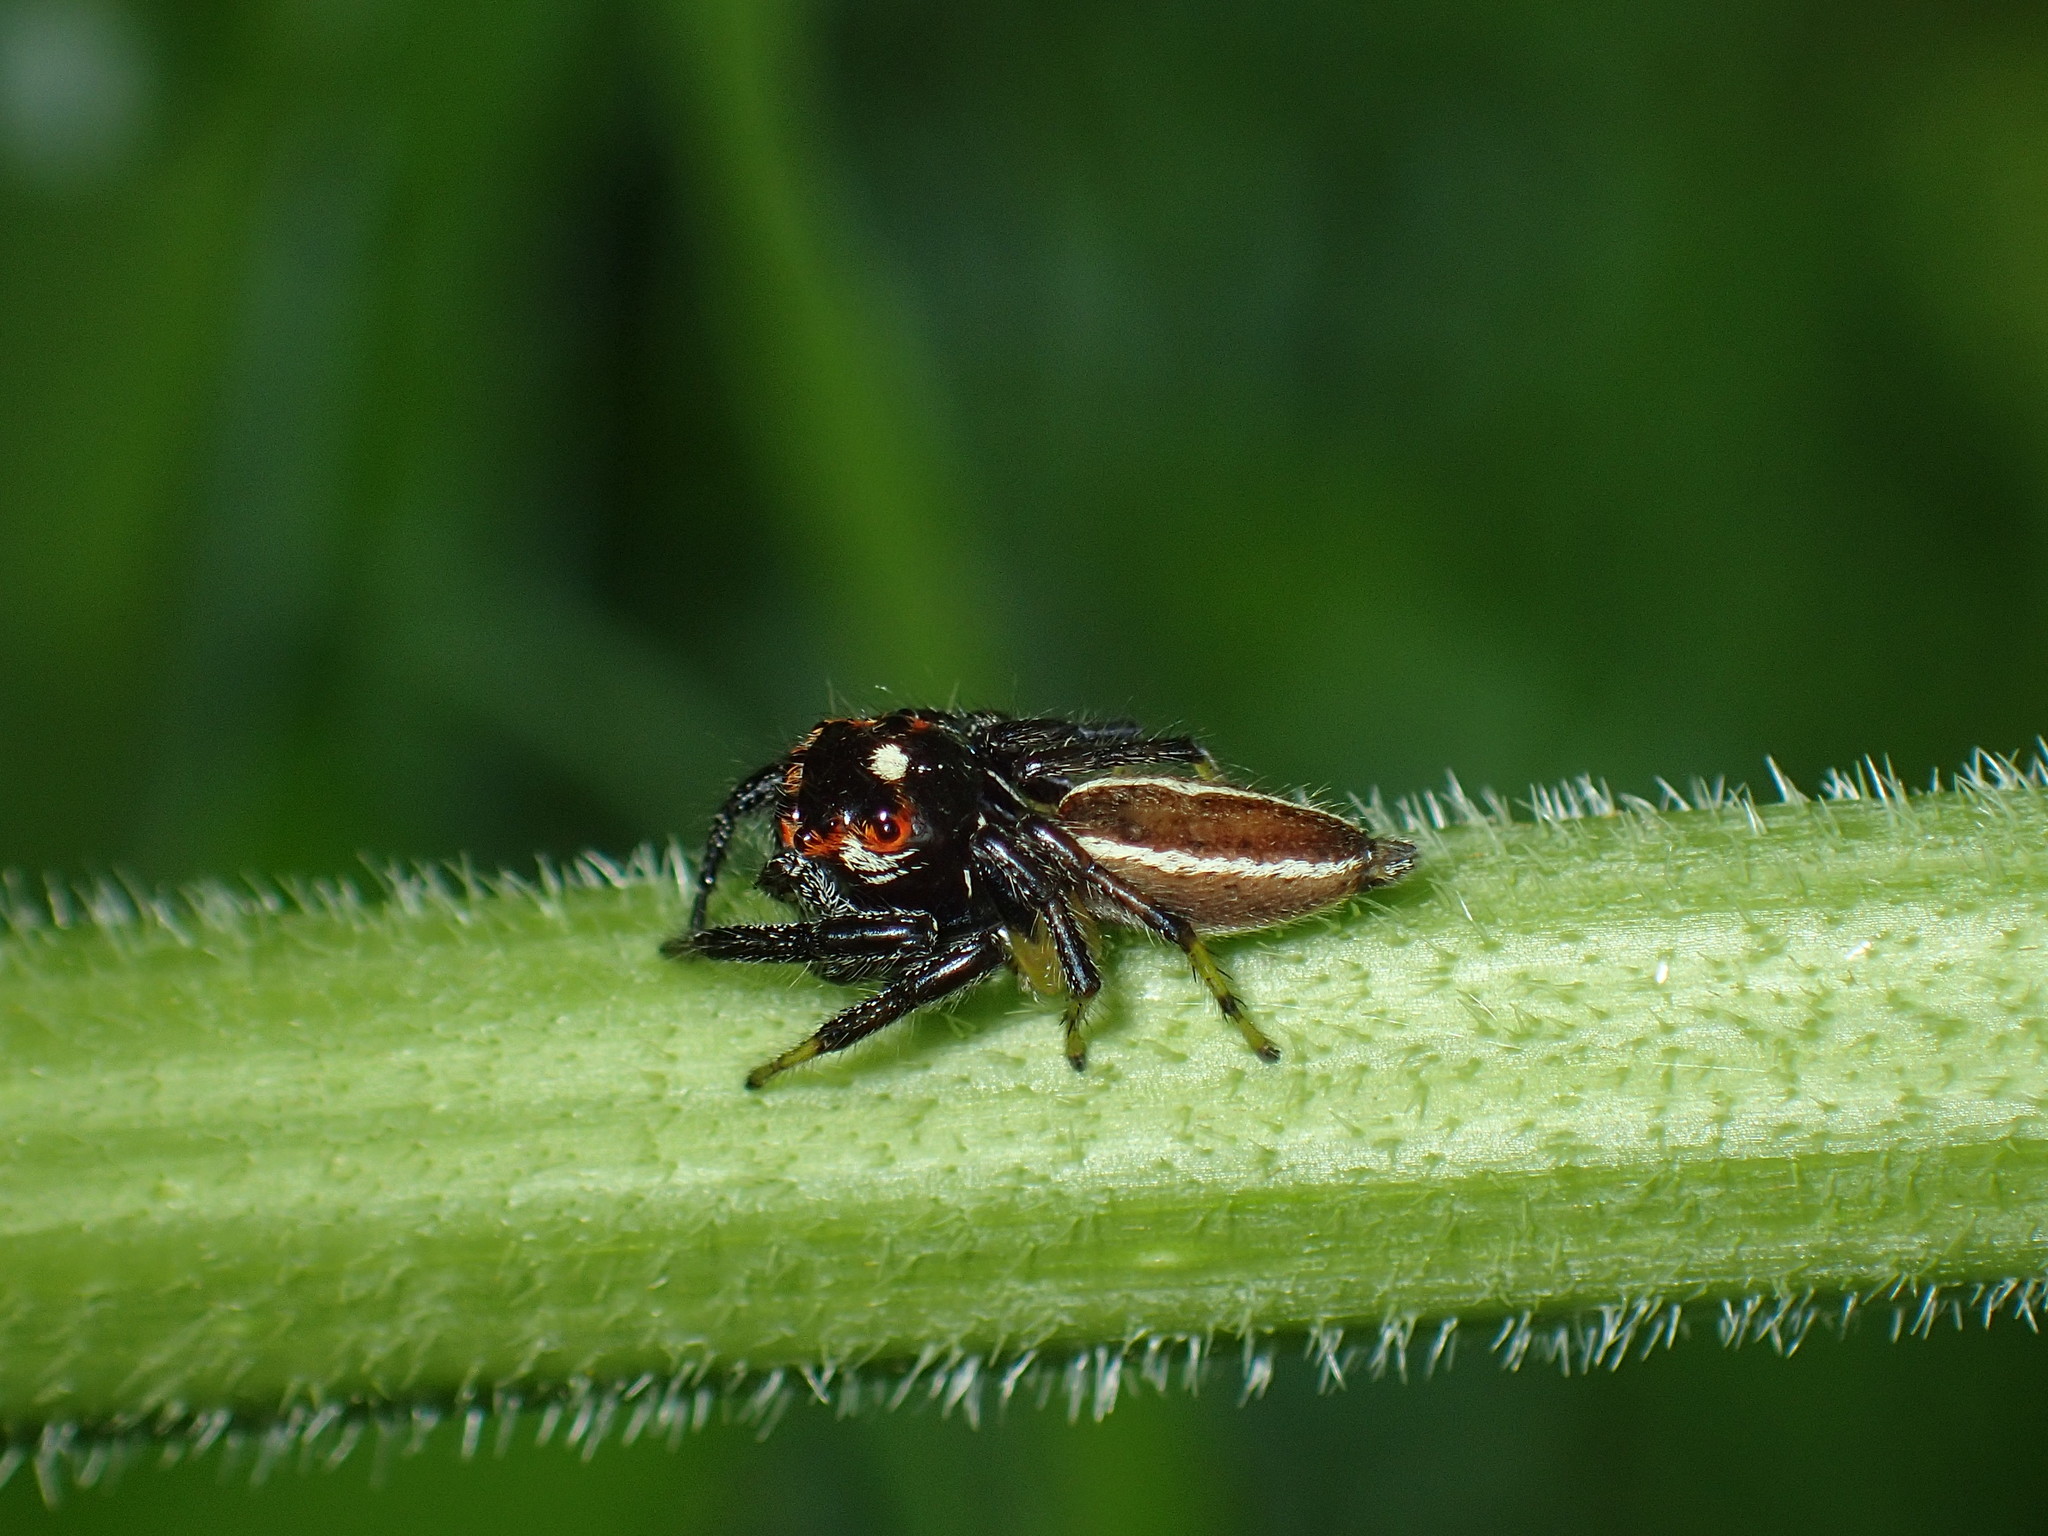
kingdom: Animalia
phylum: Arthropoda
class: Arachnida
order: Araneae
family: Salticidae
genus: Colonus
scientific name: Colonus sylvanus
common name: Jumping spiders
